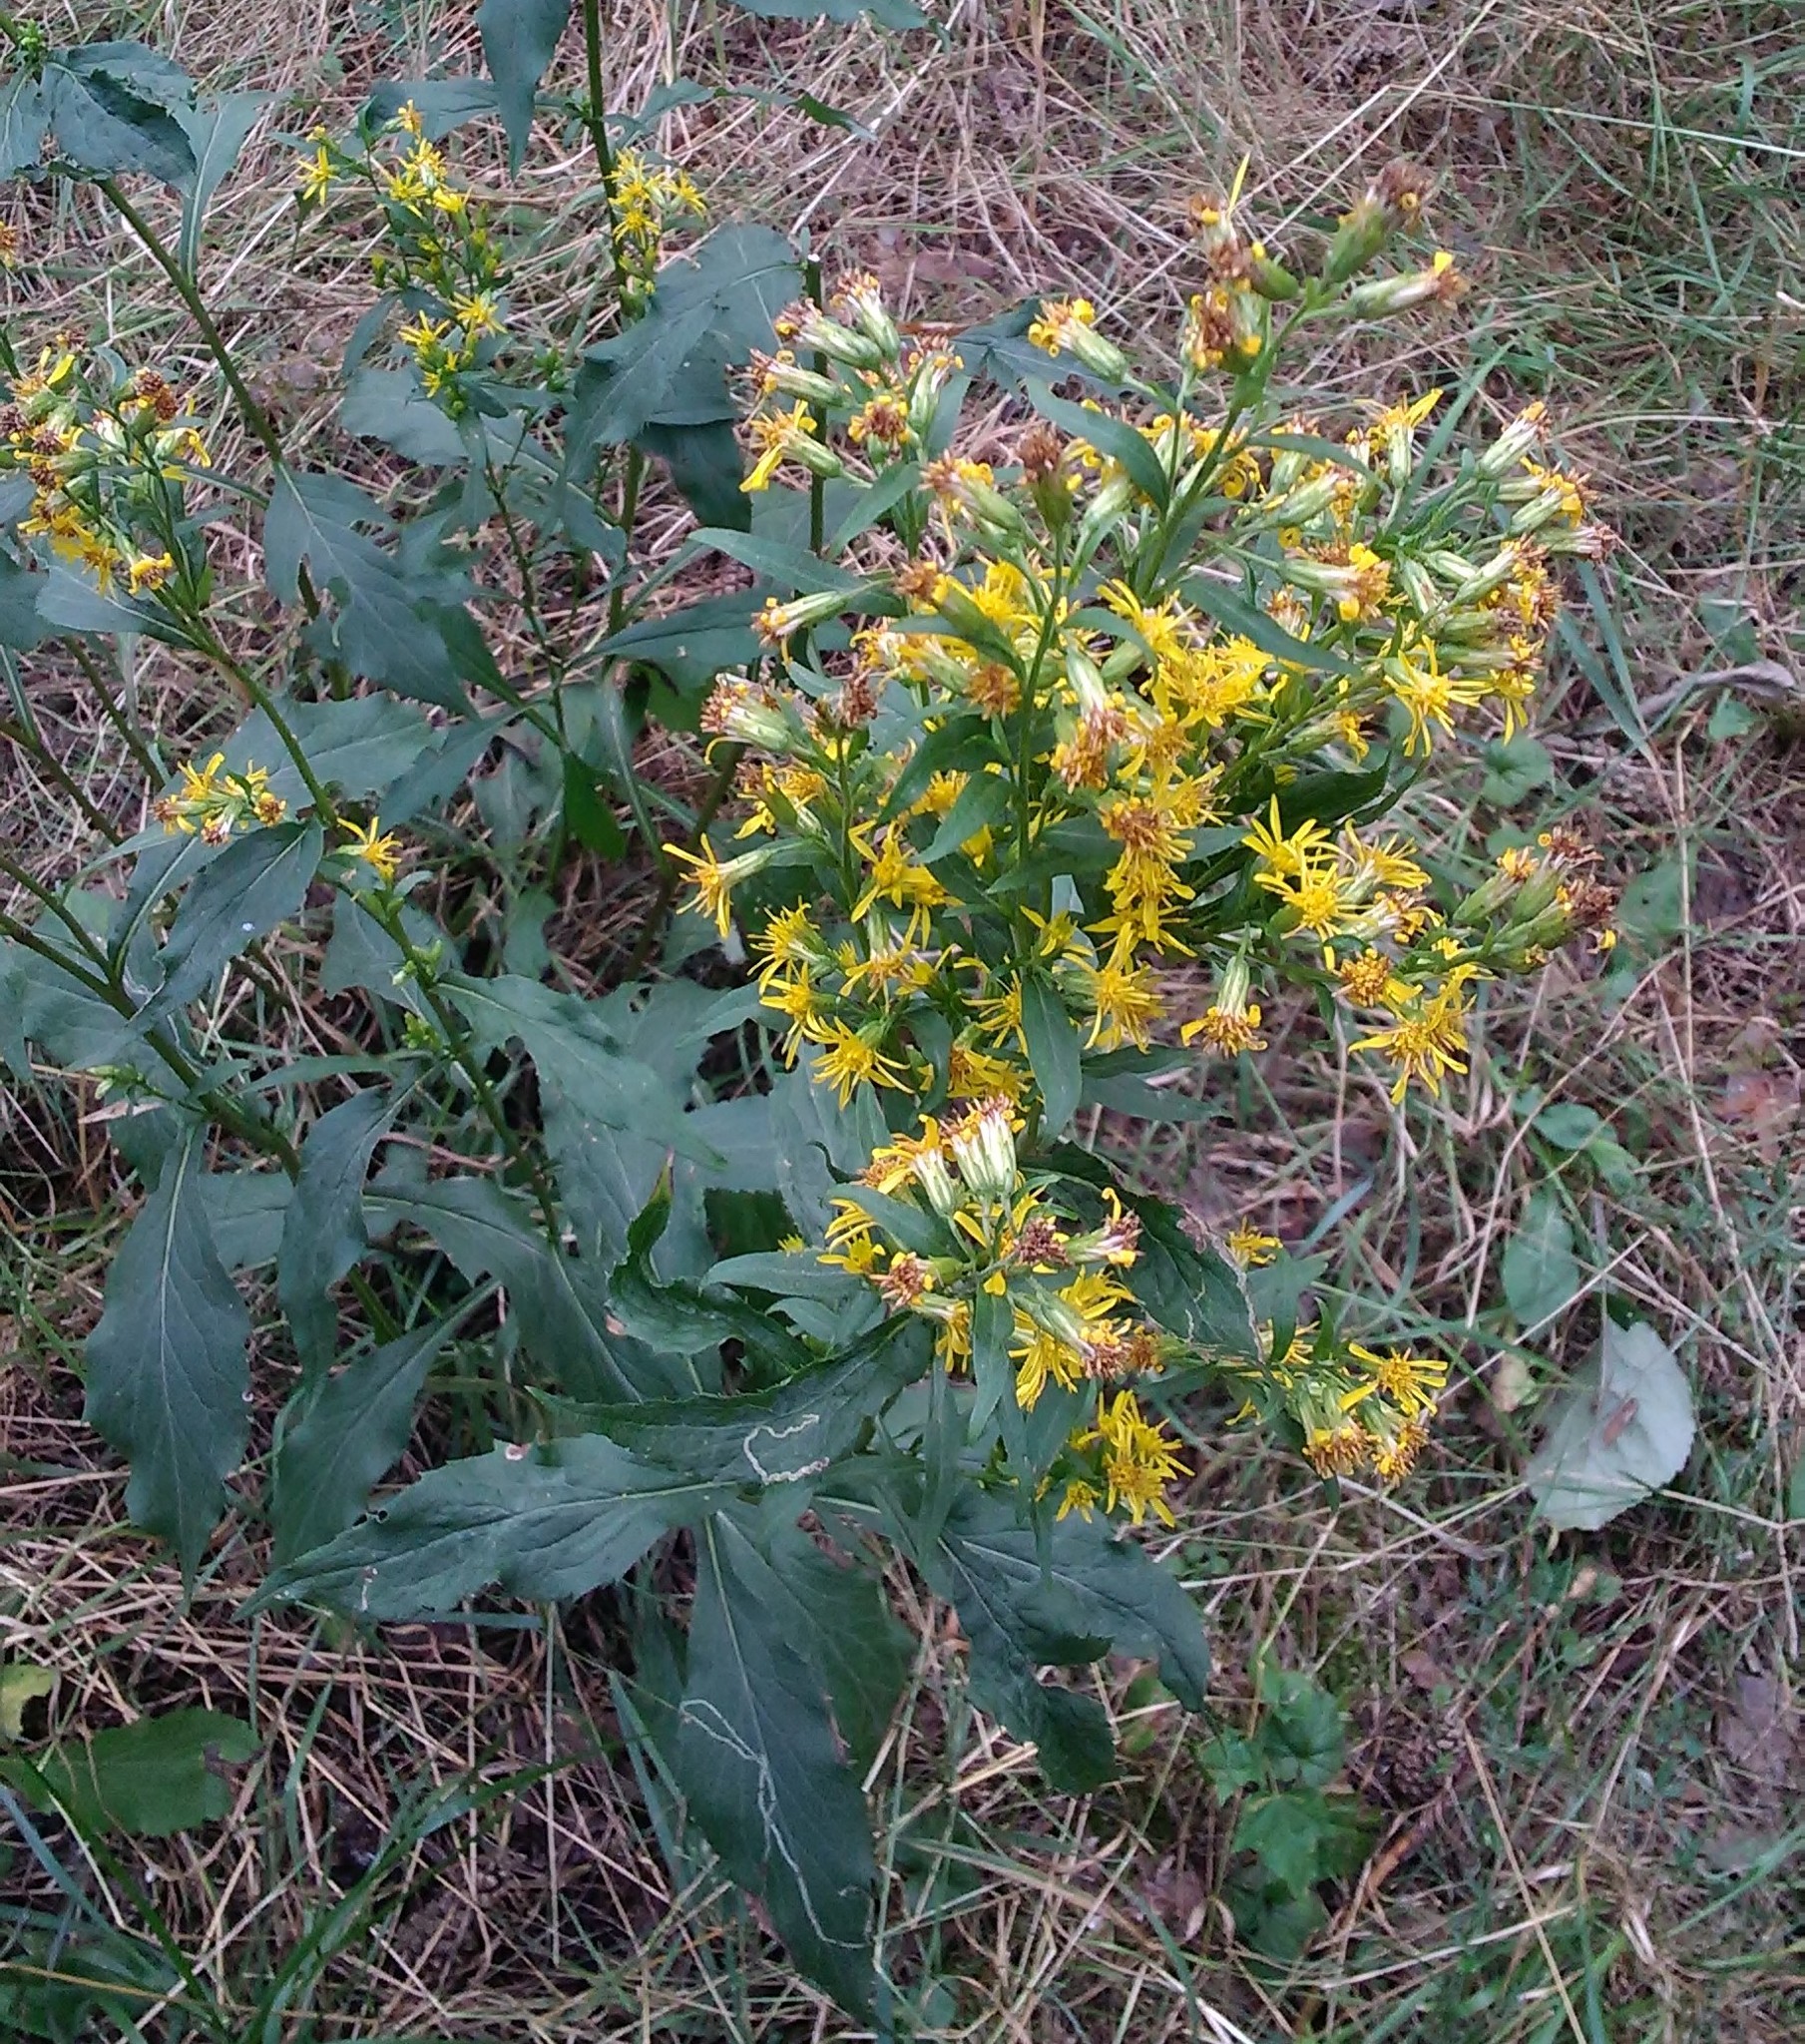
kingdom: Plantae
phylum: Tracheophyta
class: Magnoliopsida
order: Asterales
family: Asteraceae
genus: Solidago
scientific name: Solidago virgaurea
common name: Goldenrod
